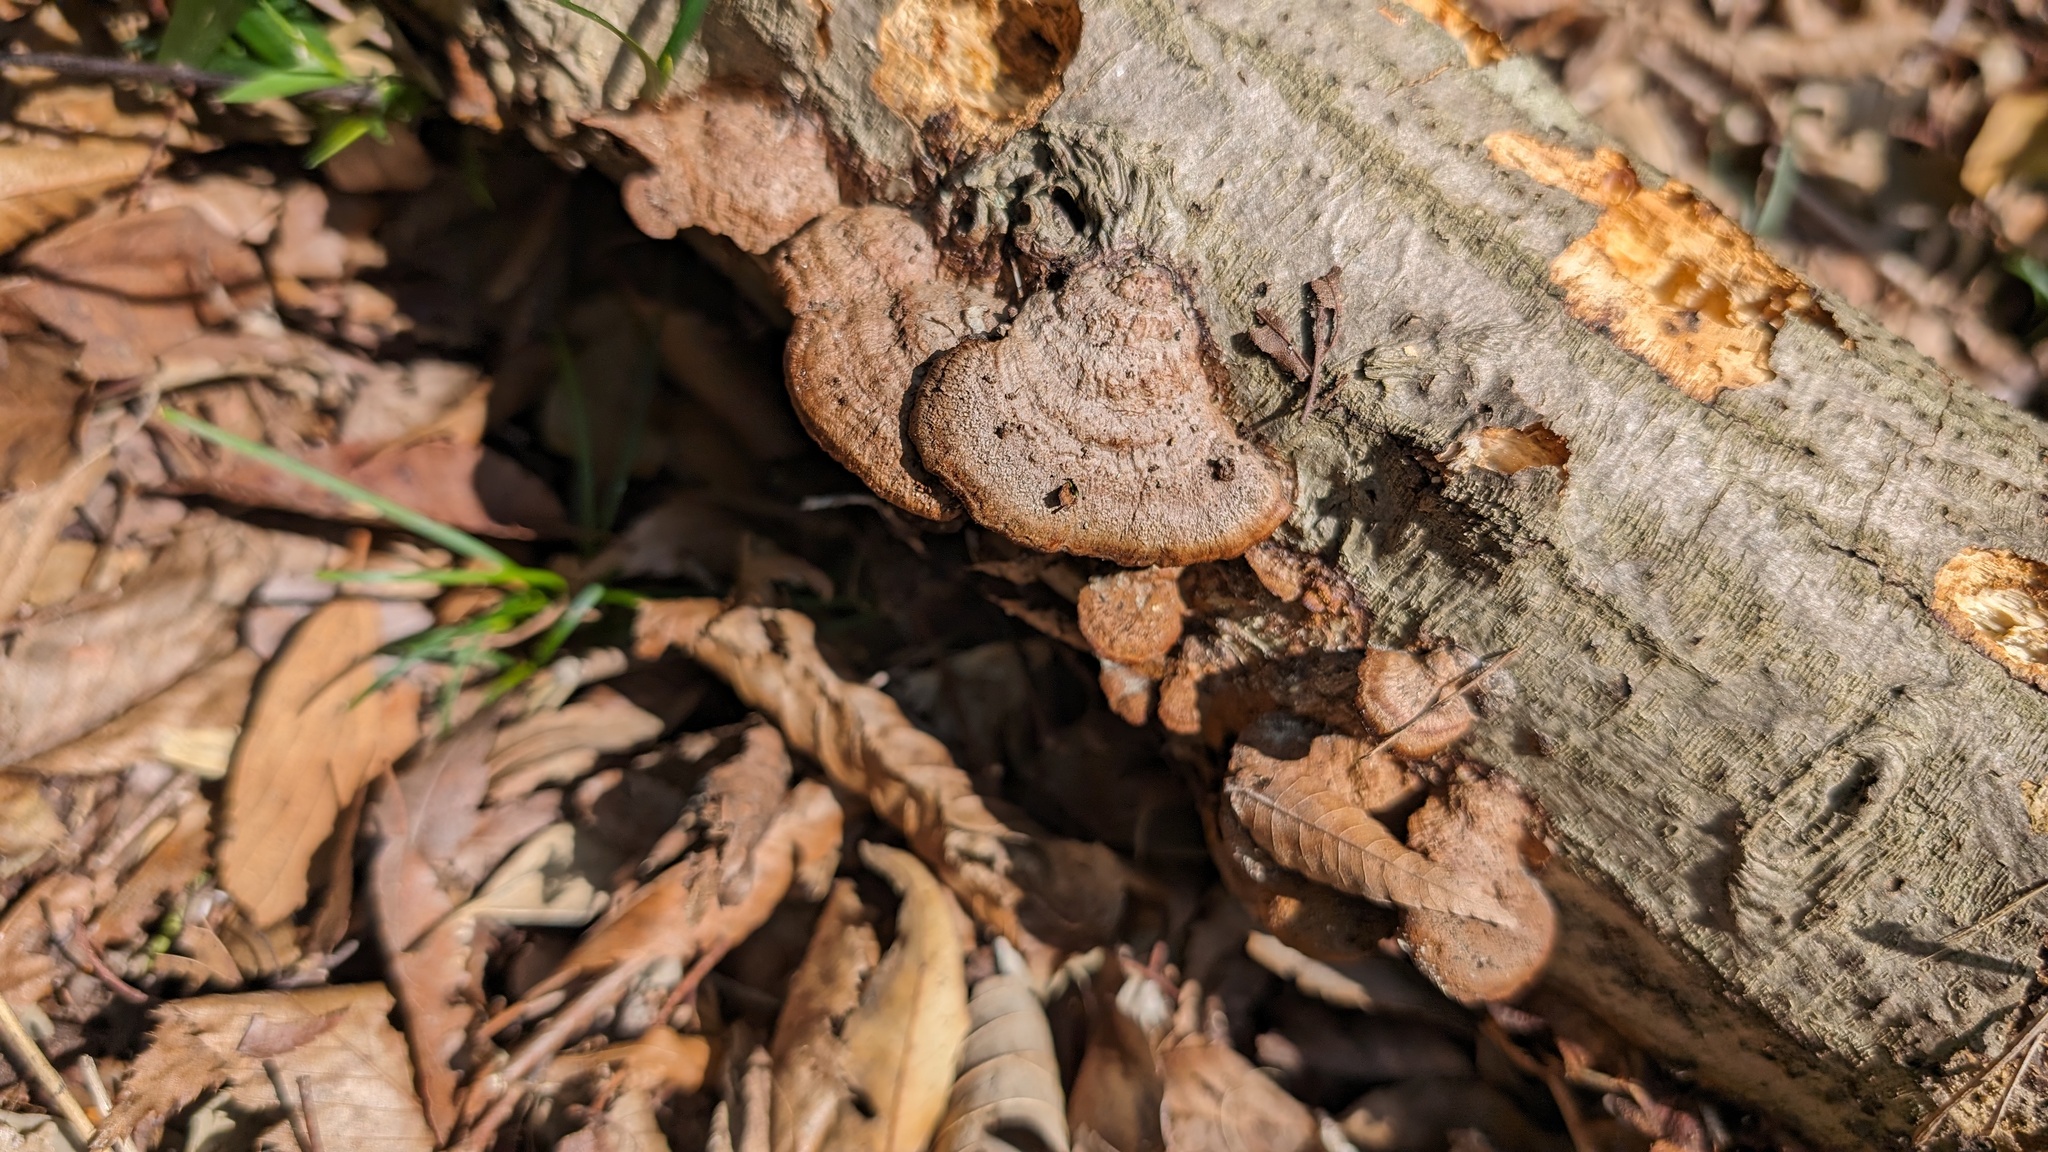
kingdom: Fungi
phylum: Basidiomycota
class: Agaricomycetes
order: Hymenochaetales
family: Hymenochaetaceae
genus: Phellinus
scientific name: Phellinus gilvus
